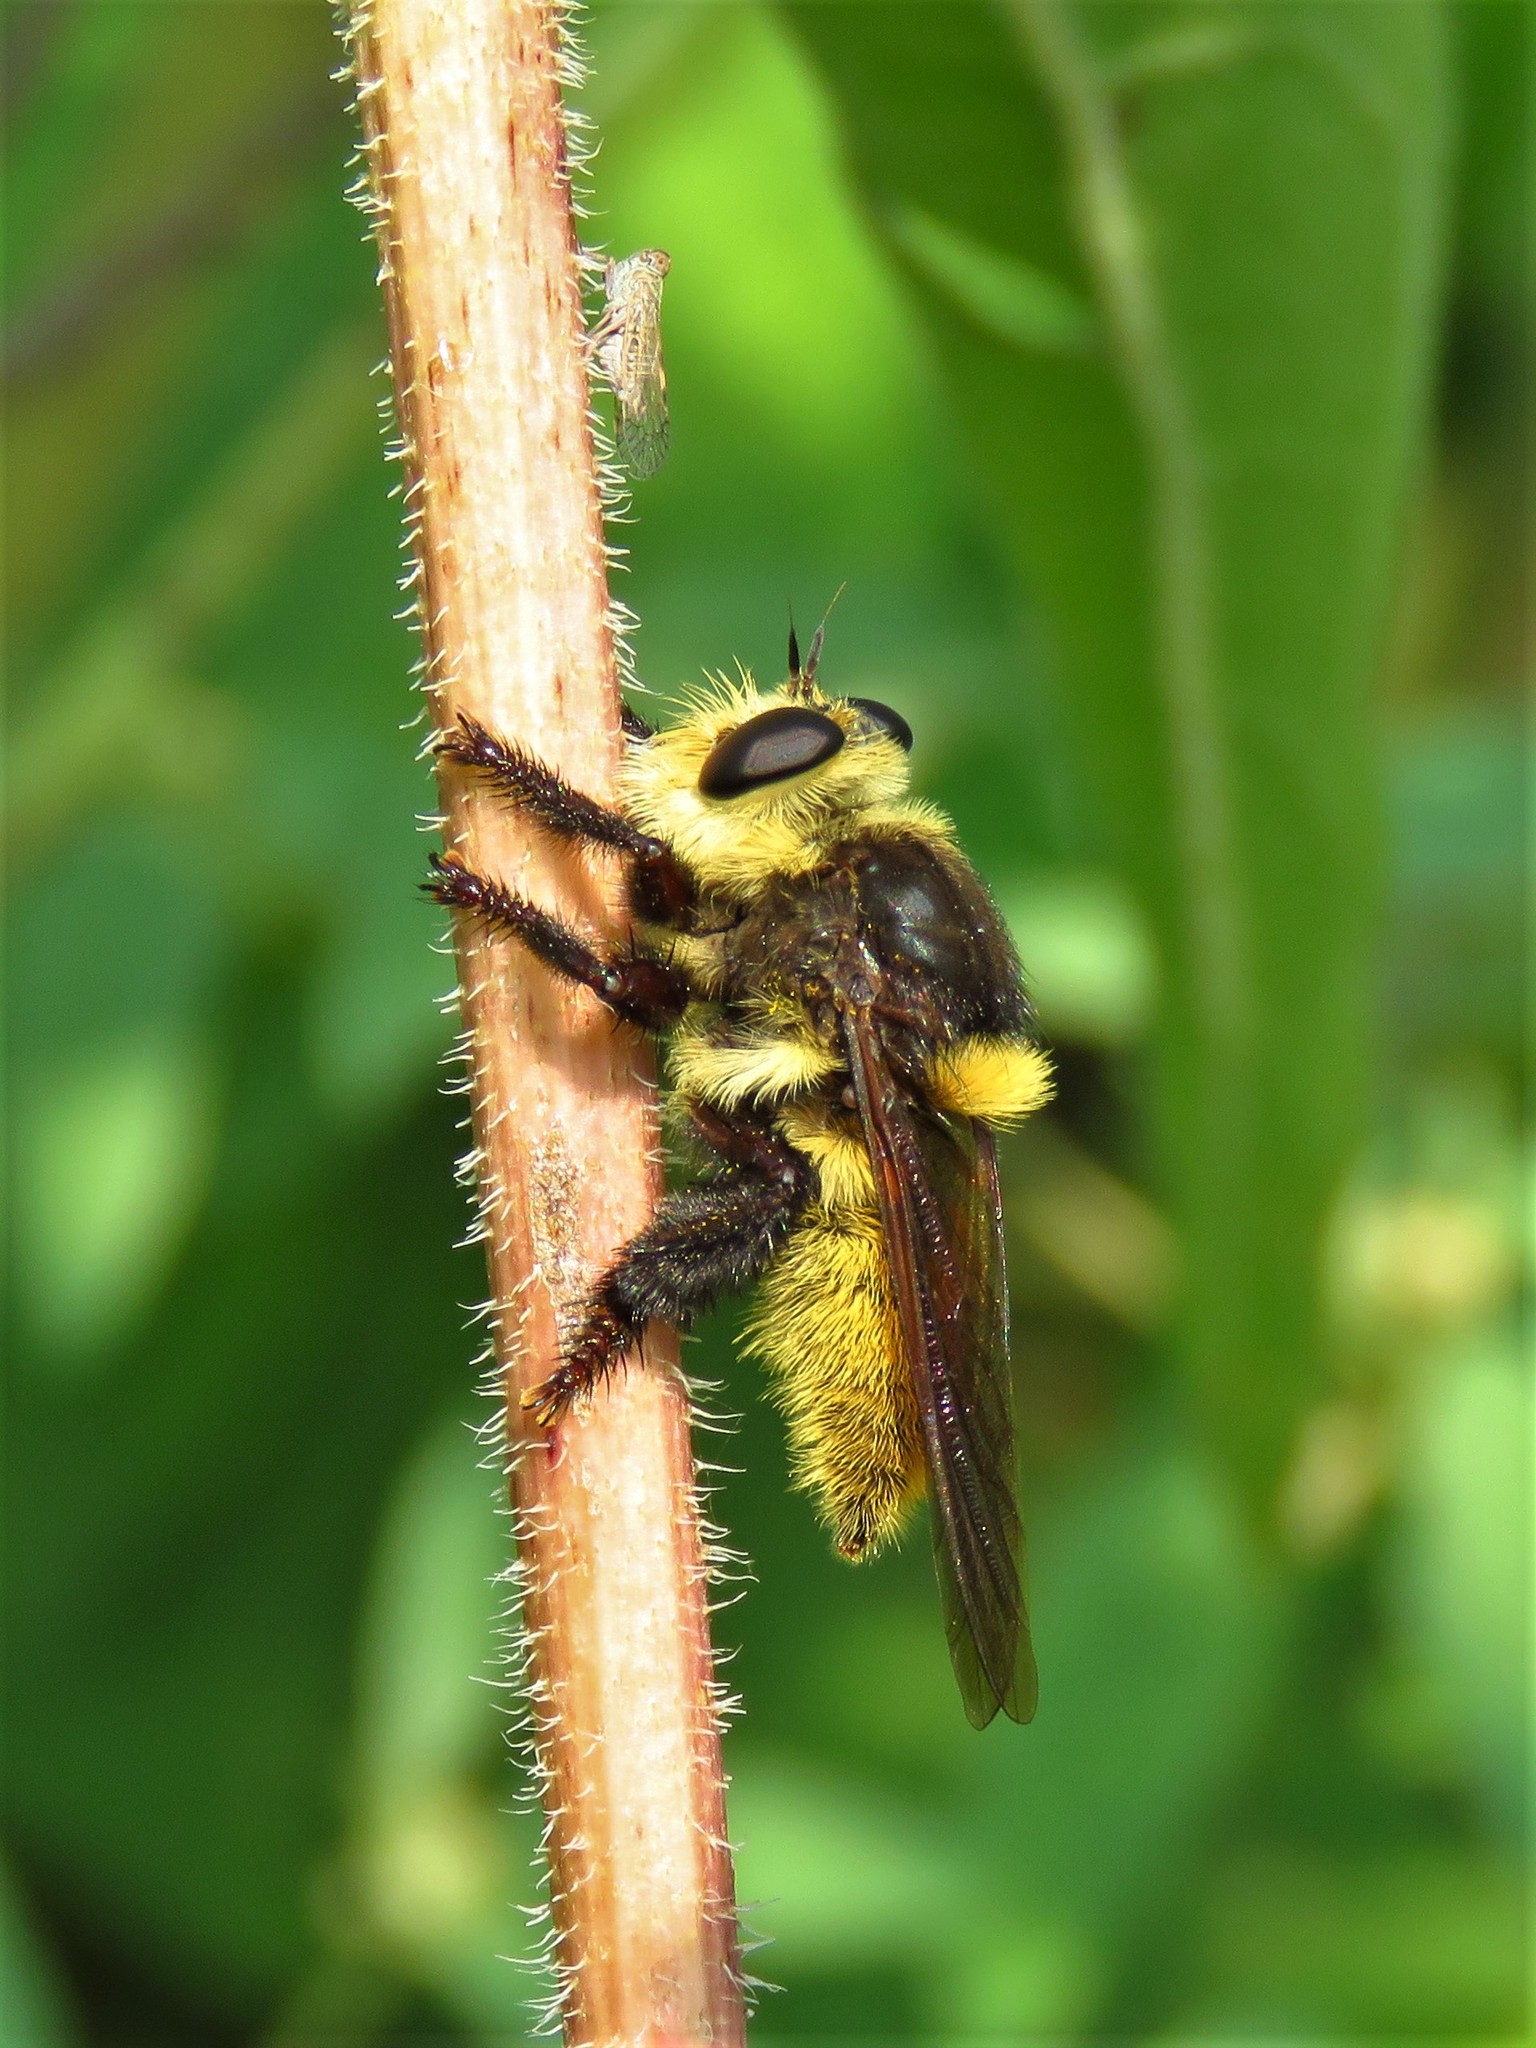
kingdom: Animalia
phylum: Arthropoda
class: Insecta
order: Diptera
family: Asilidae
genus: Mallophora
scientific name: Mallophora fautrix
